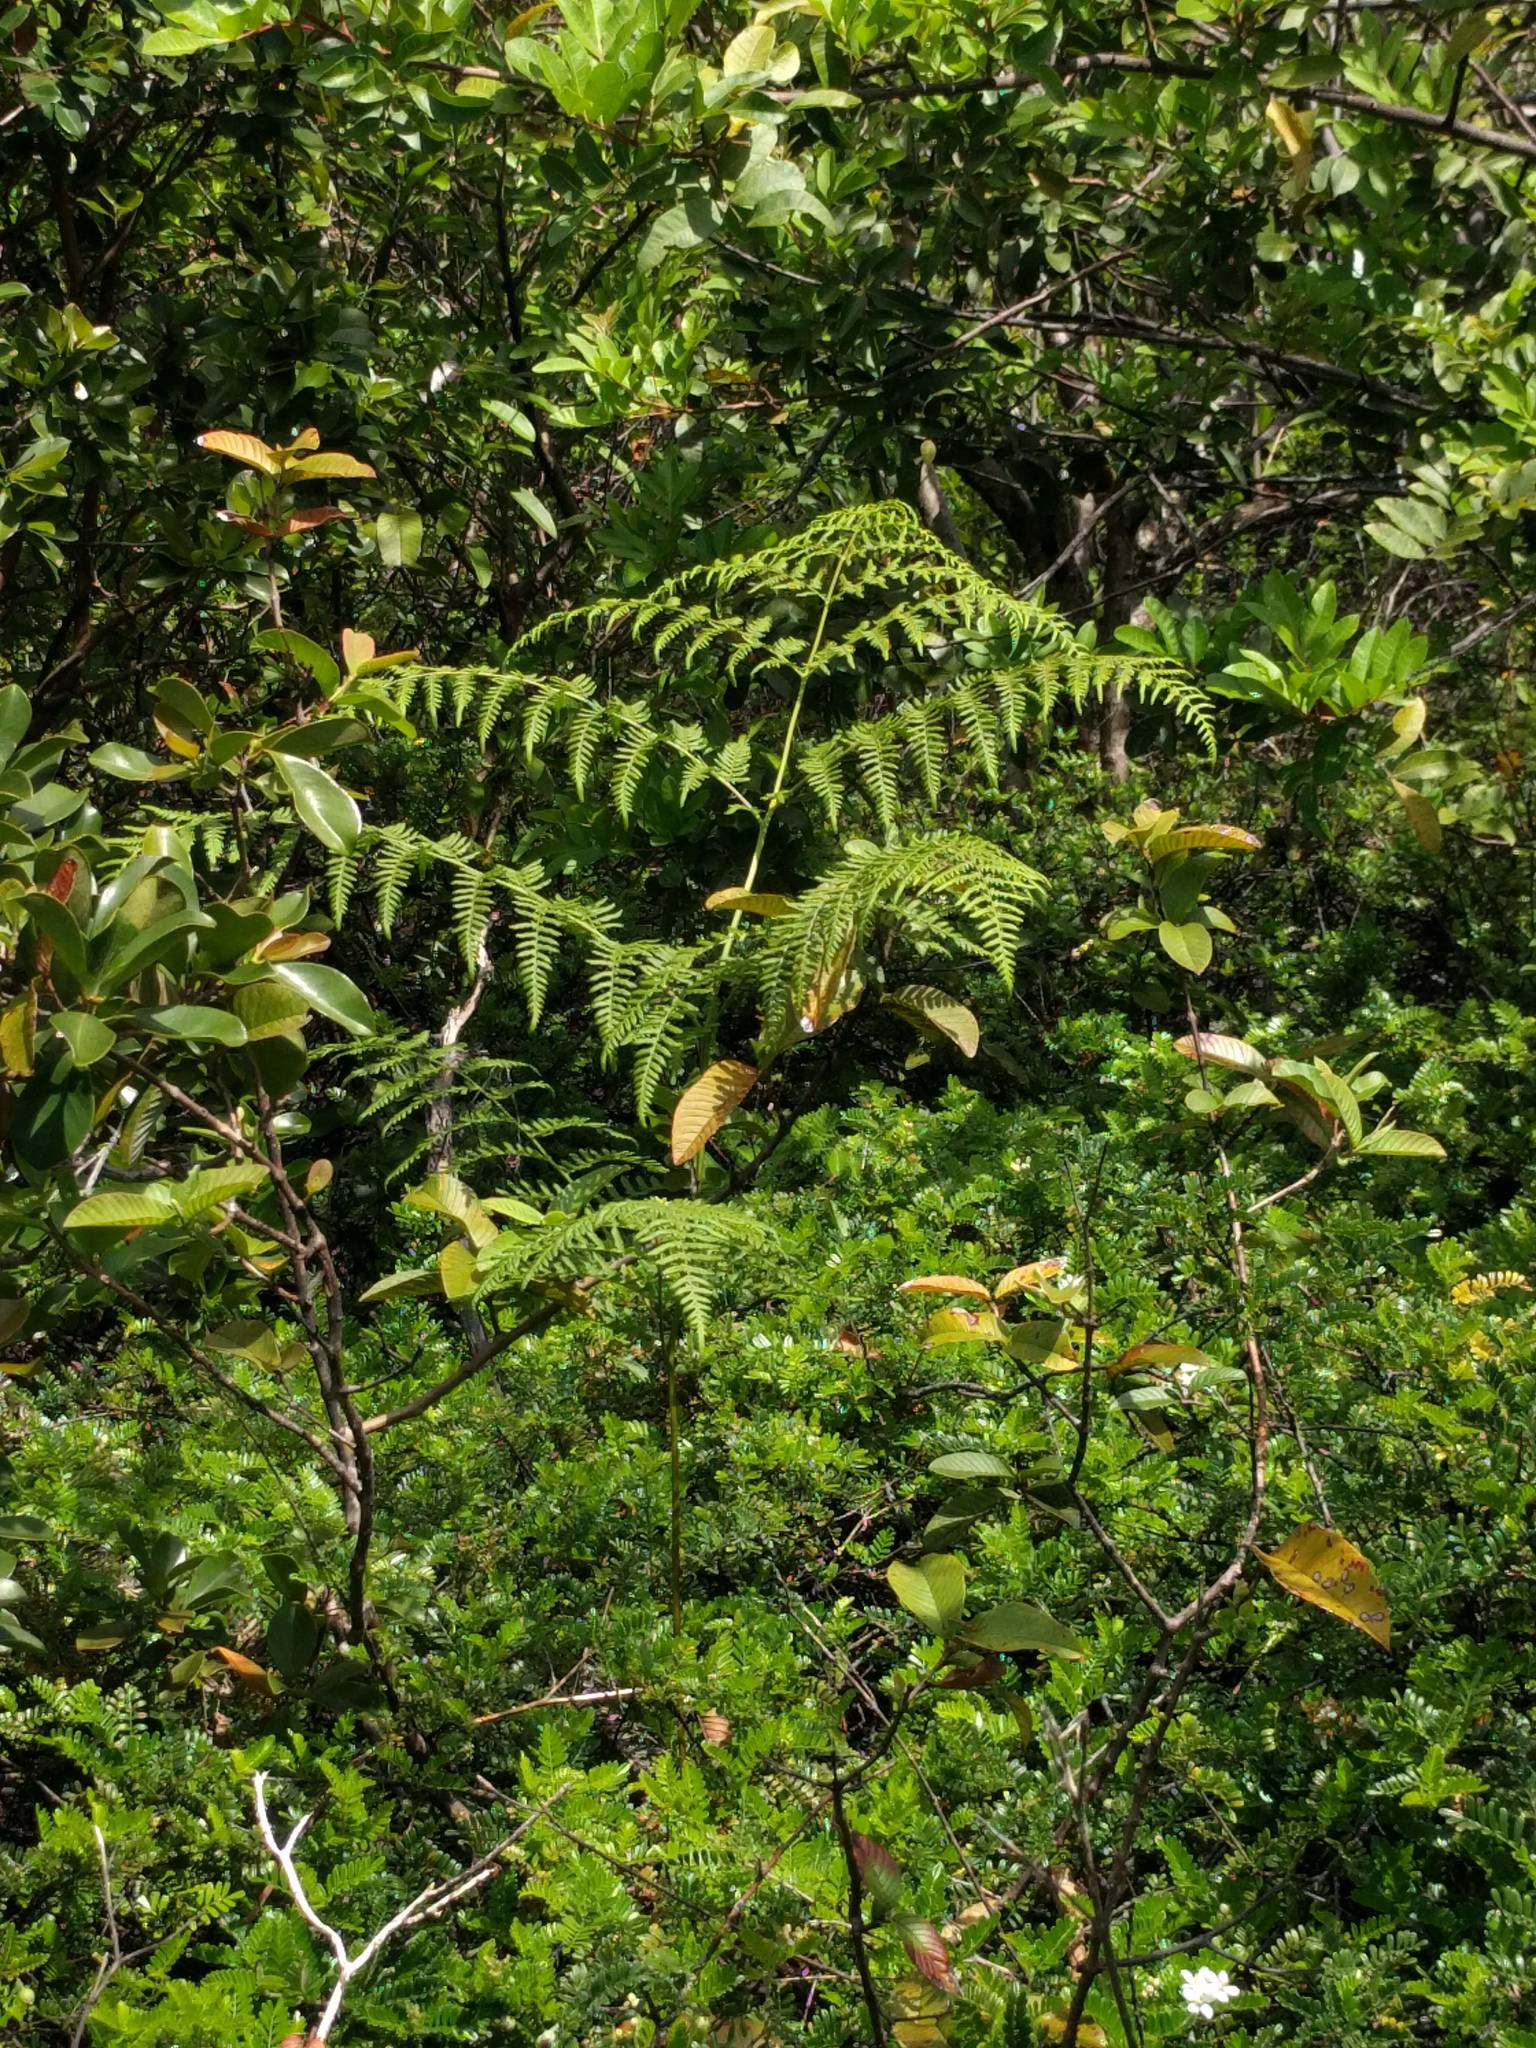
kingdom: Plantae
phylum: Tracheophyta
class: Polypodiopsida
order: Polypodiales
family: Dennstaedtiaceae
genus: Pteridium
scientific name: Pteridium aquilinum
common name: Bracken
